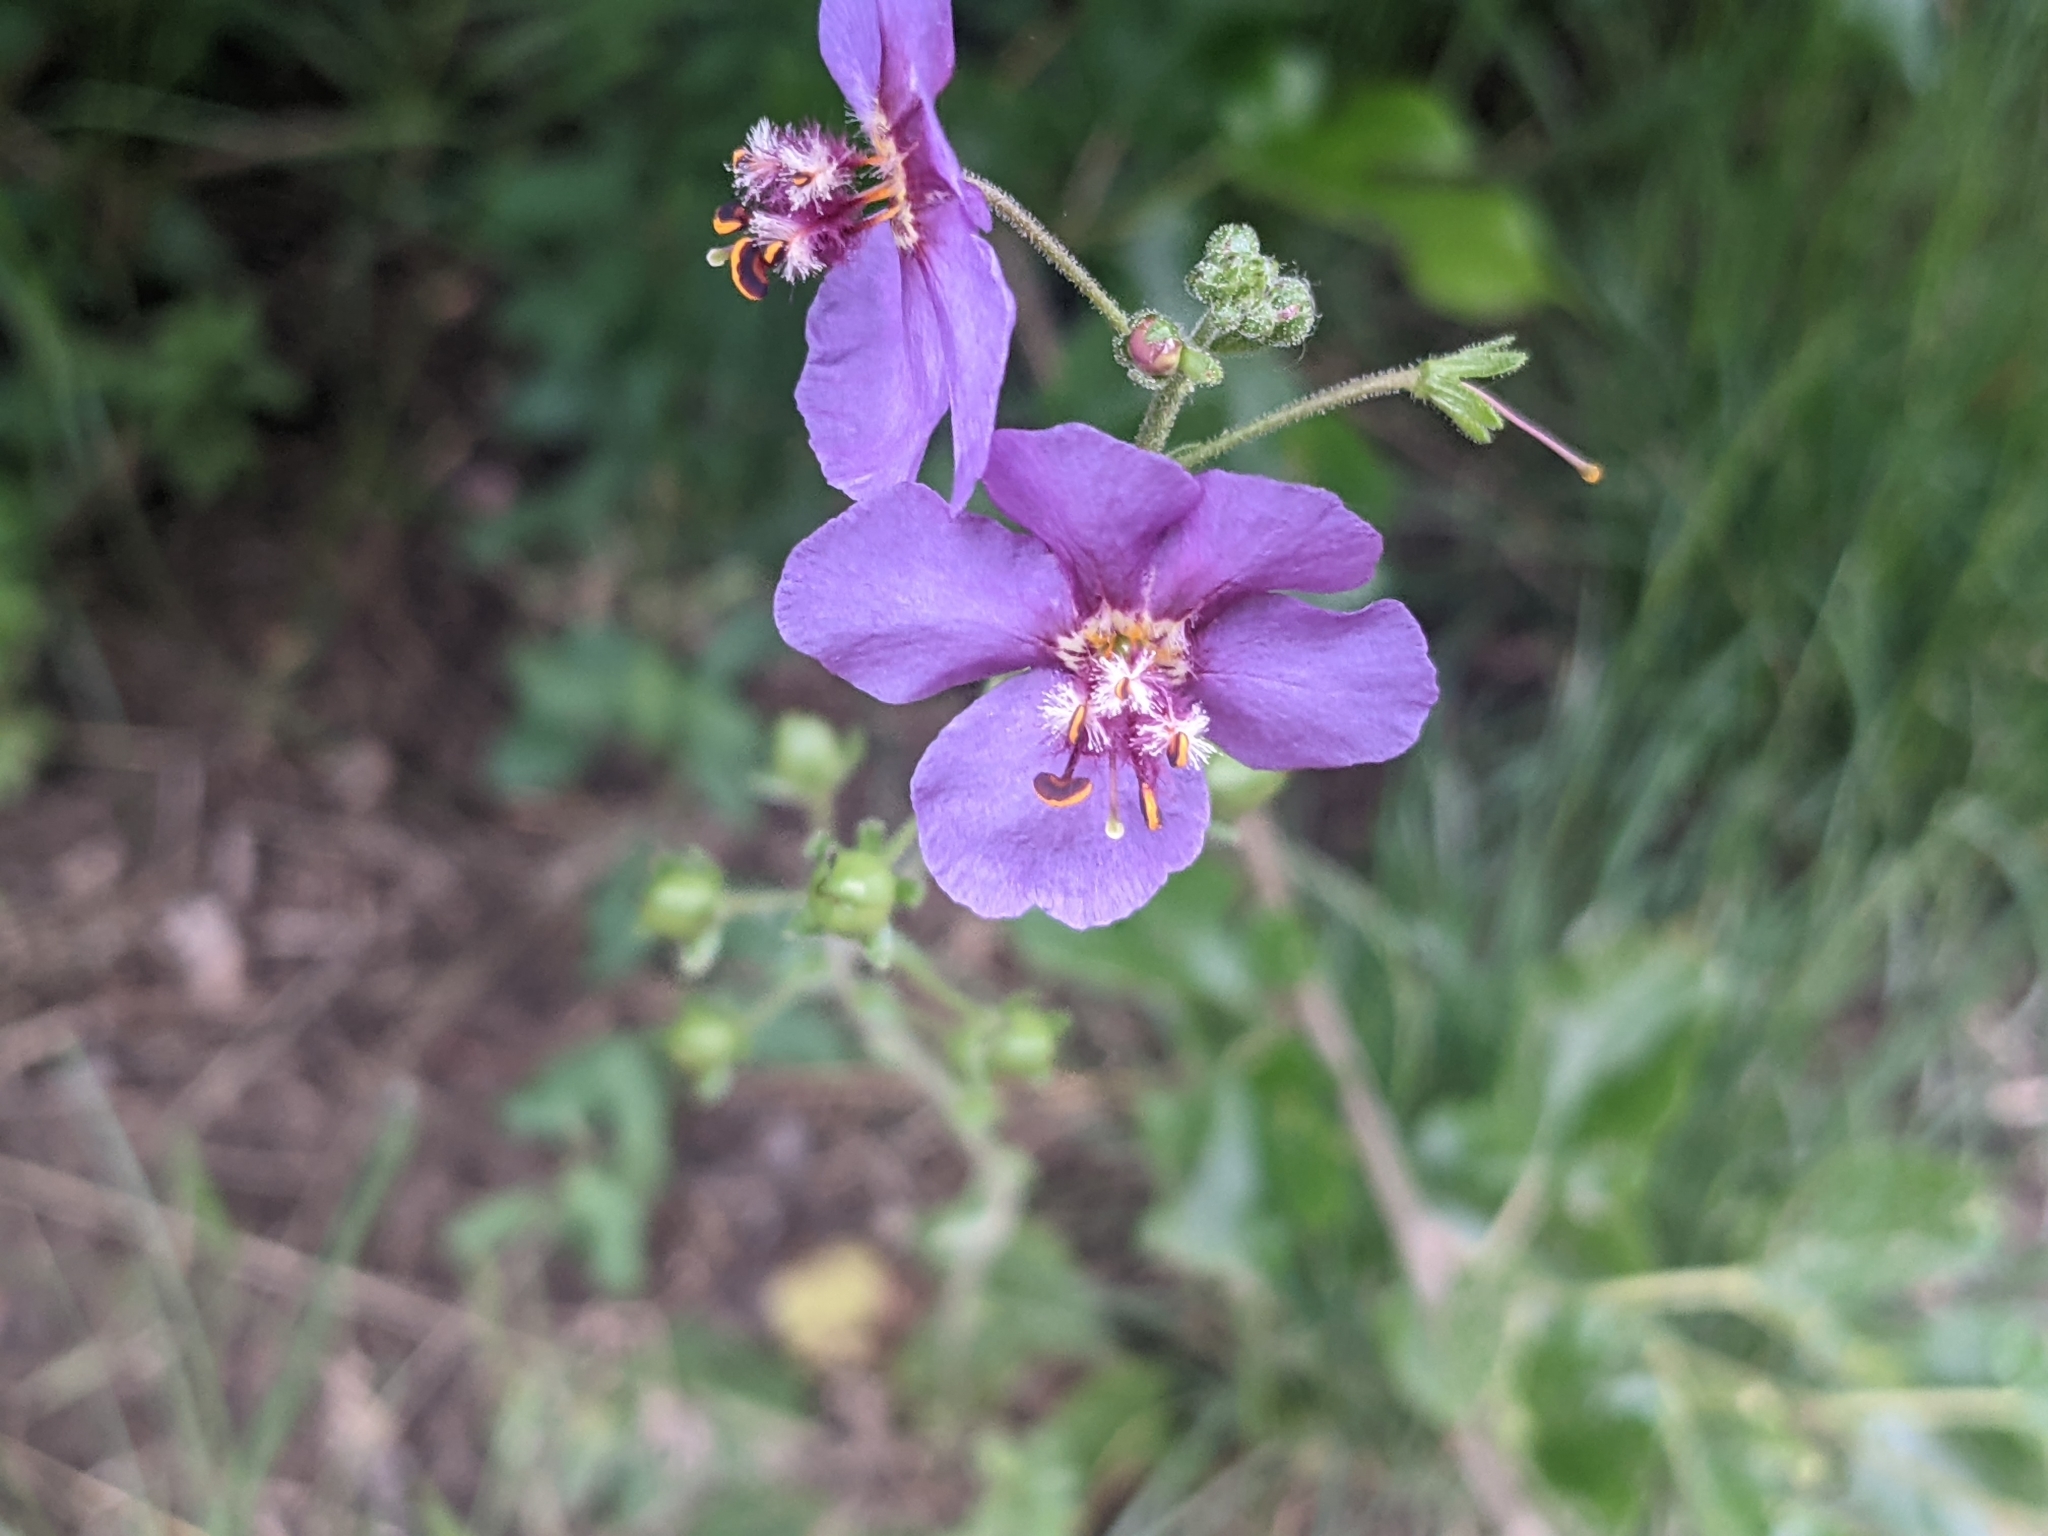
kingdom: Plantae
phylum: Tracheophyta
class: Magnoliopsida
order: Lamiales
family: Scrophulariaceae
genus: Verbascum
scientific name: Verbascum phoeniceum
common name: Purple mullein
